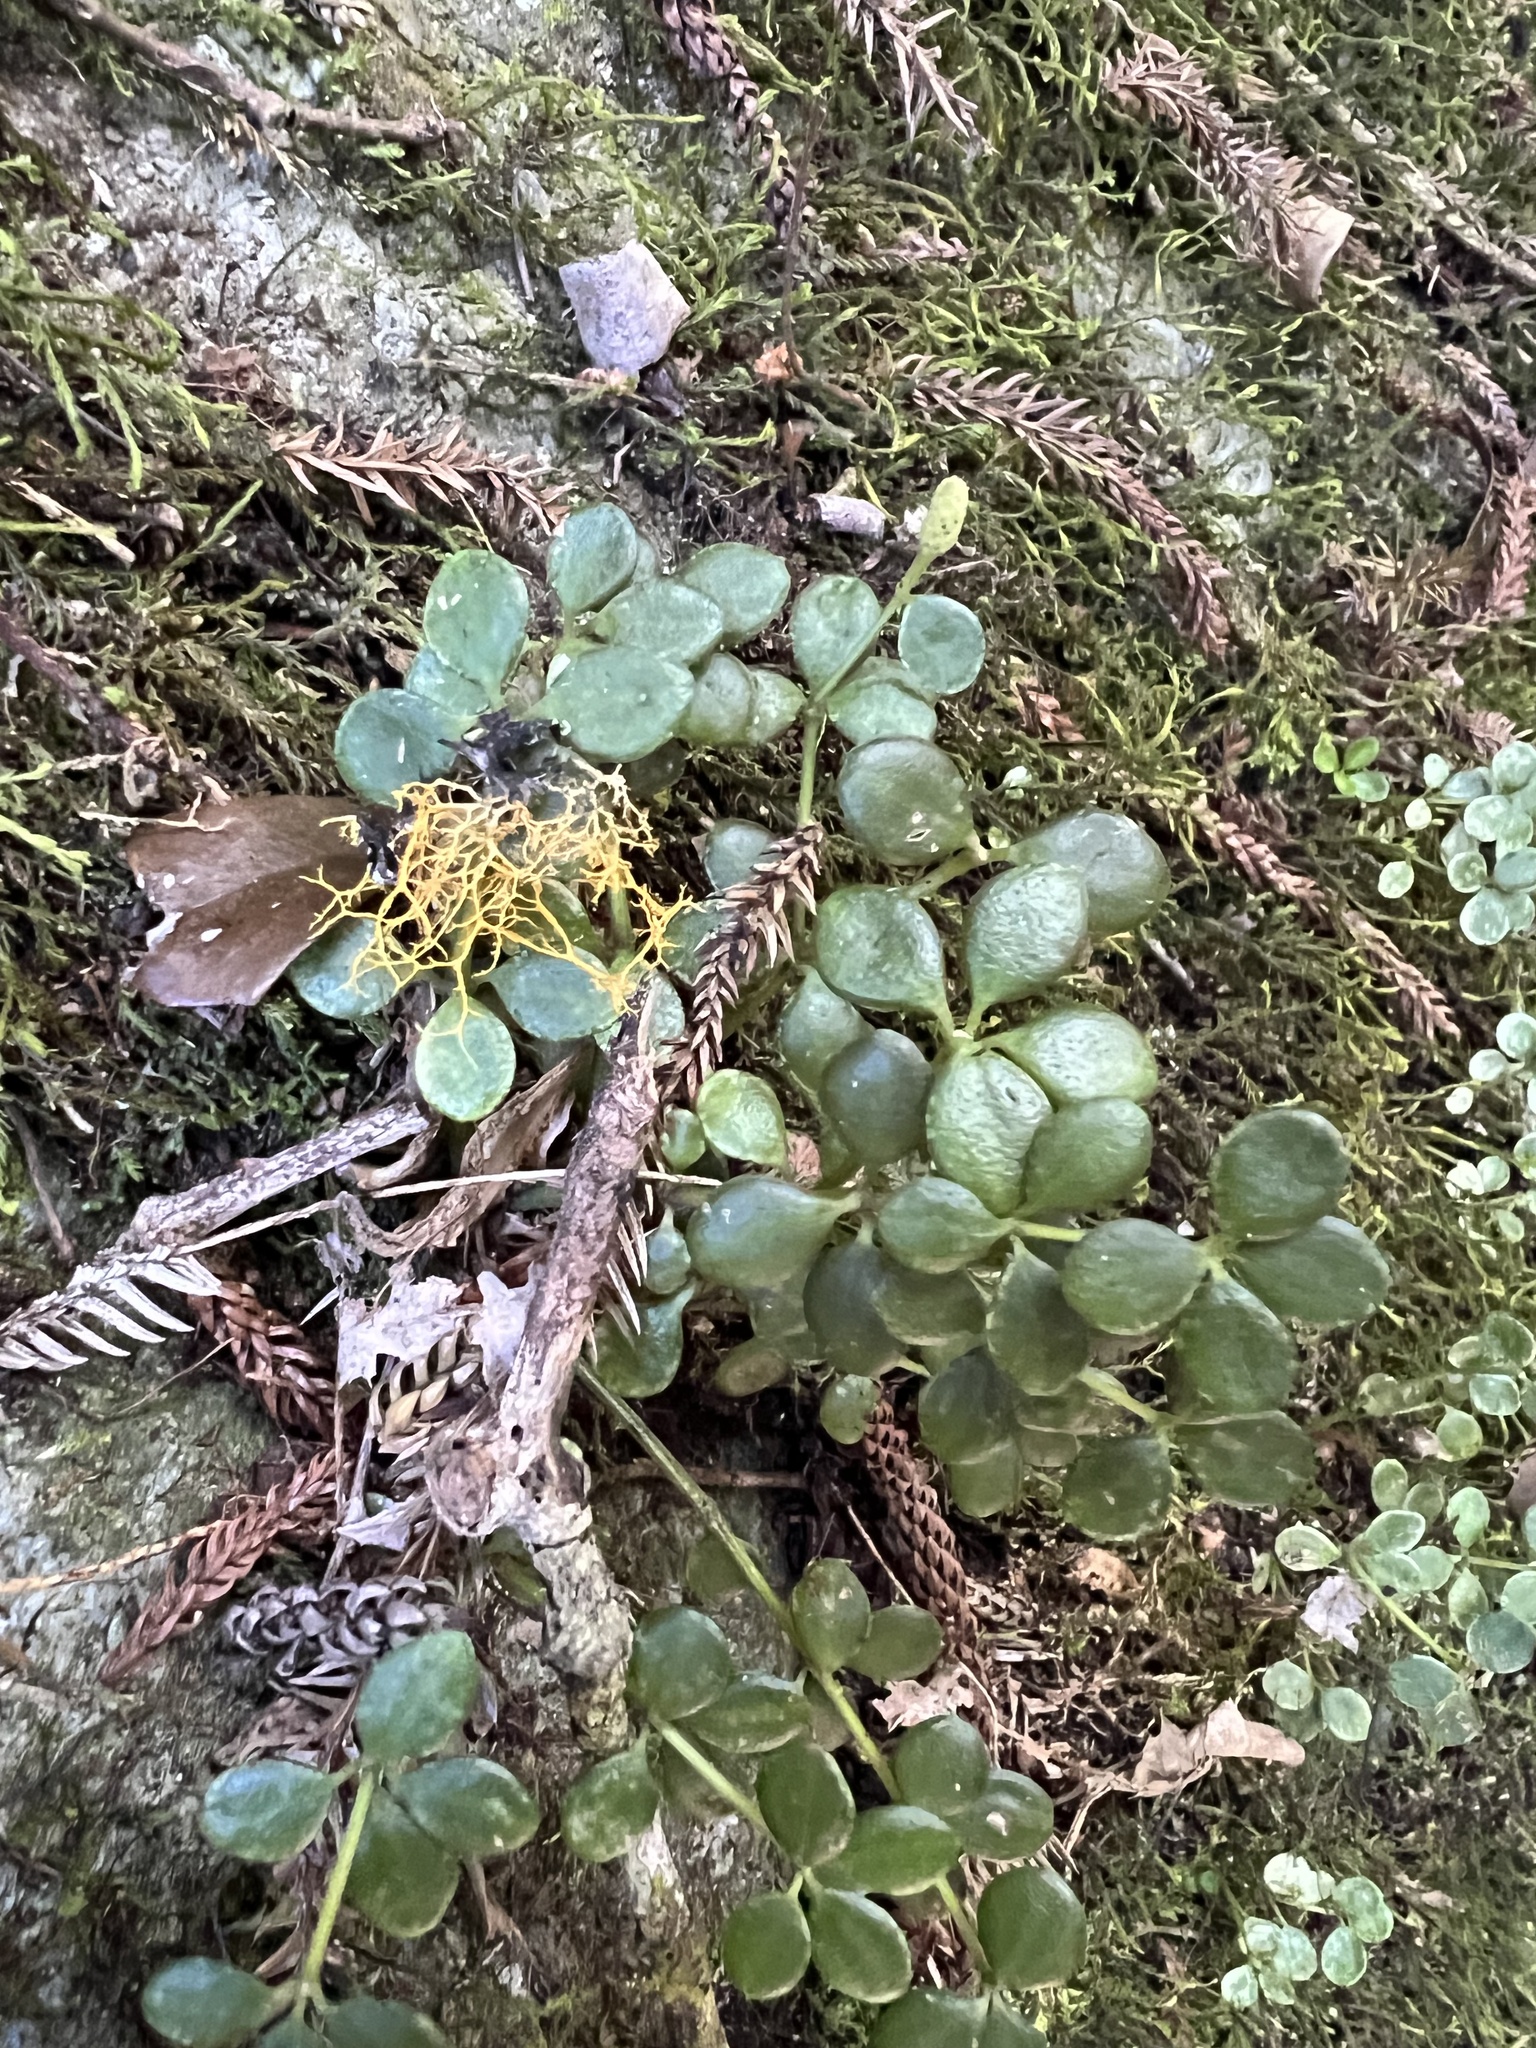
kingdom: Plantae
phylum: Tracheophyta
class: Magnoliopsida
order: Piperales
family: Piperaceae
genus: Peperomia
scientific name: Peperomia tetraphylla
